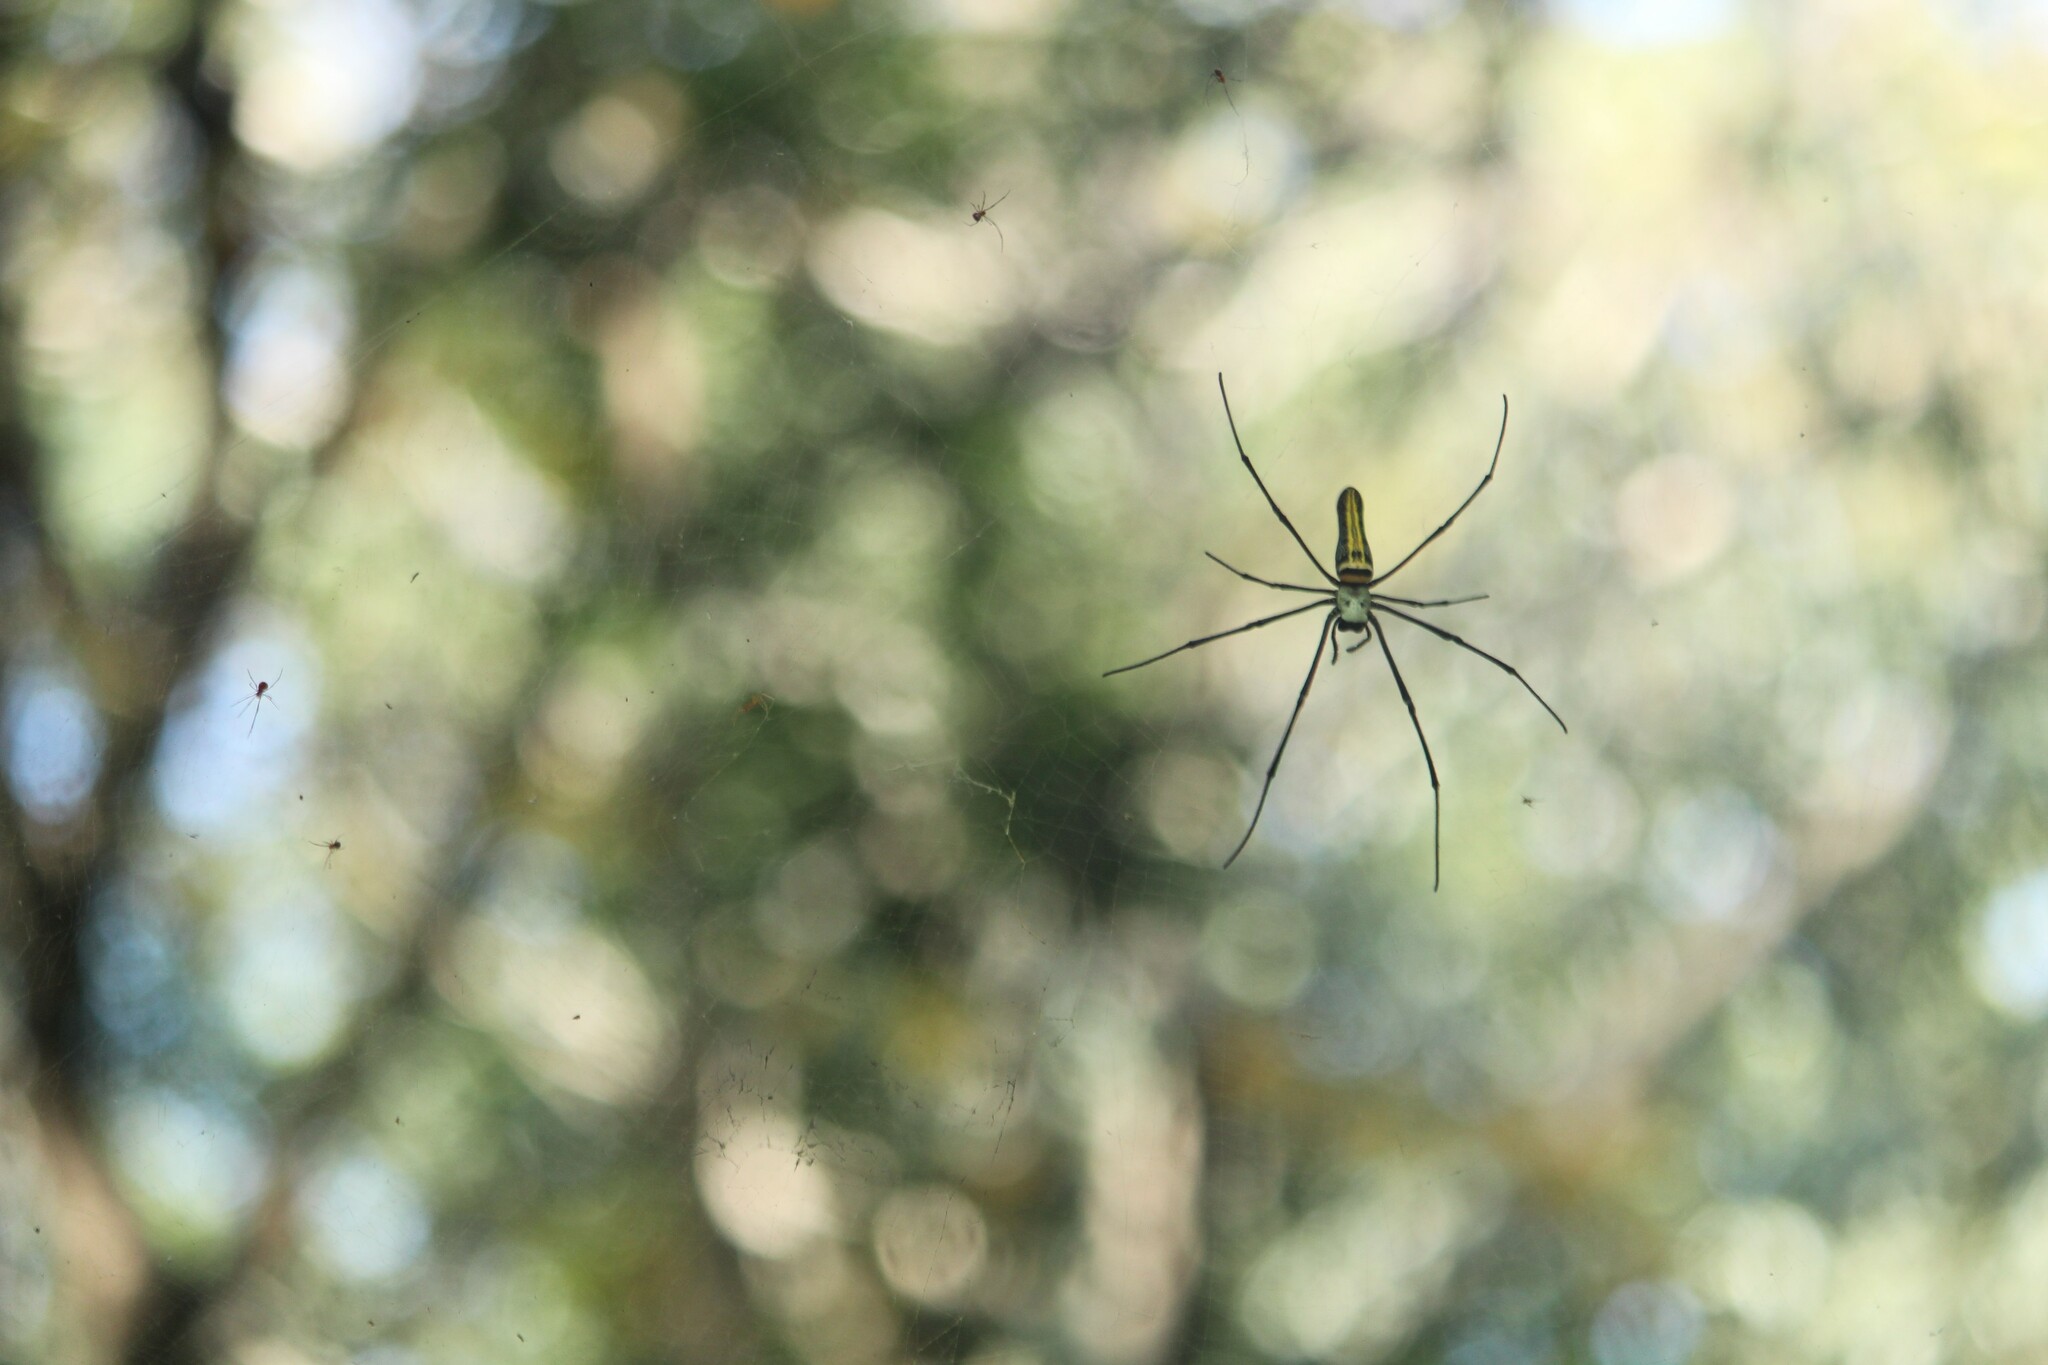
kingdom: Animalia
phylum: Arthropoda
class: Arachnida
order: Araneae
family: Araneidae
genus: Nephila
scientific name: Nephila pilipes
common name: Giant golden orb weaver
